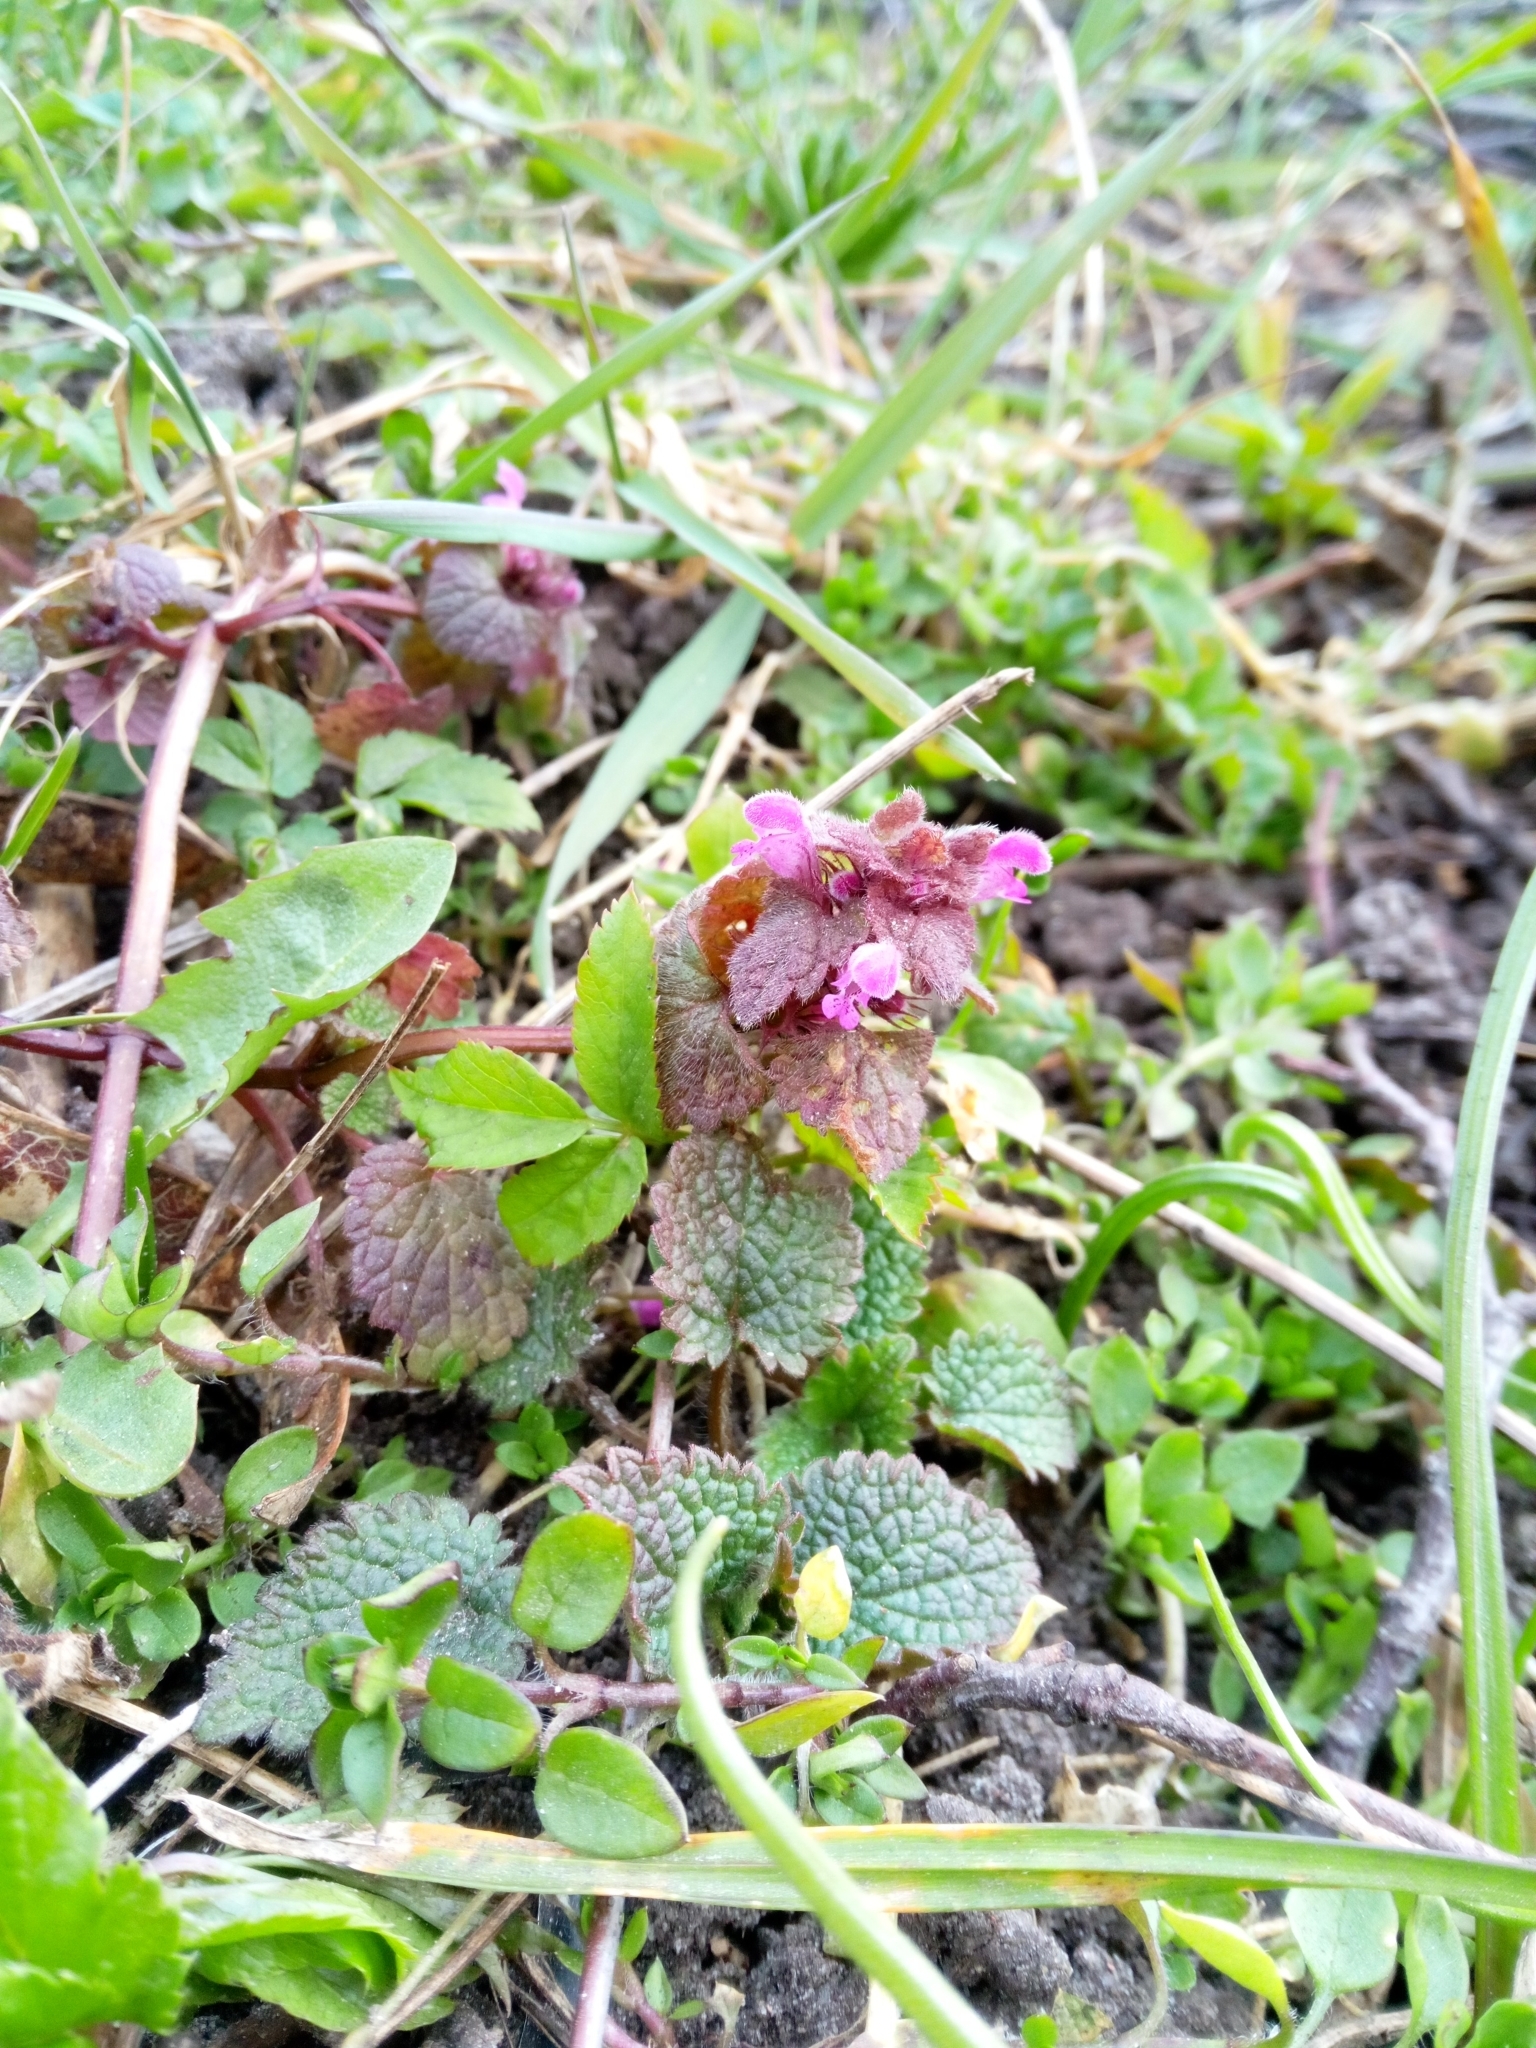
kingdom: Plantae
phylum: Tracheophyta
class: Magnoliopsida
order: Lamiales
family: Lamiaceae
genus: Lamium
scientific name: Lamium purpureum
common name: Red dead-nettle
